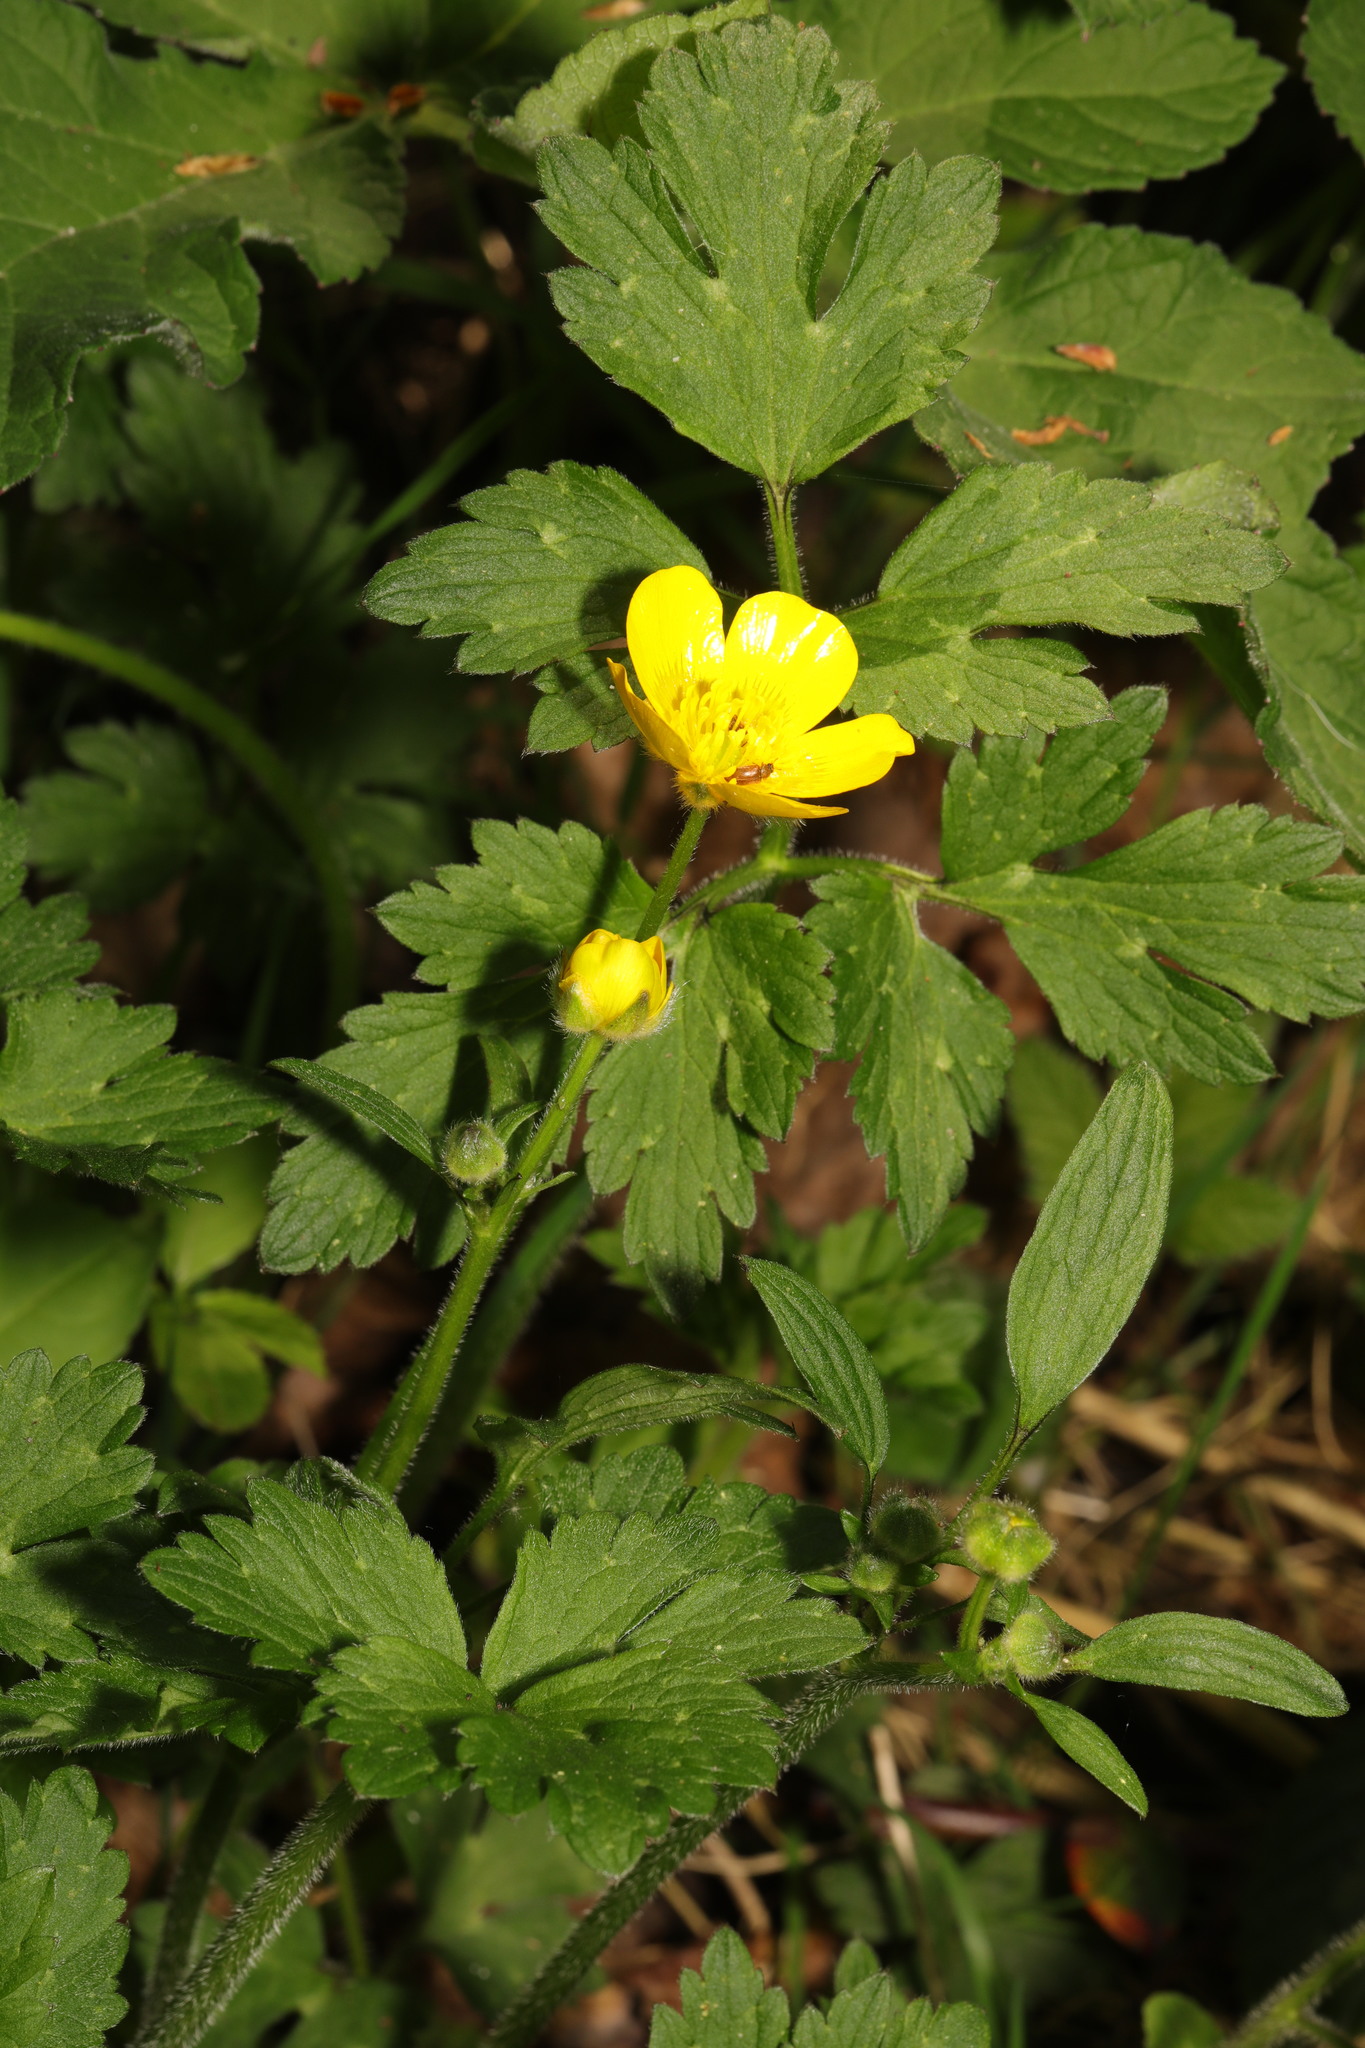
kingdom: Plantae
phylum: Tracheophyta
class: Magnoliopsida
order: Ranunculales
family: Ranunculaceae
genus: Ranunculus
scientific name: Ranunculus repens
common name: Creeping buttercup
